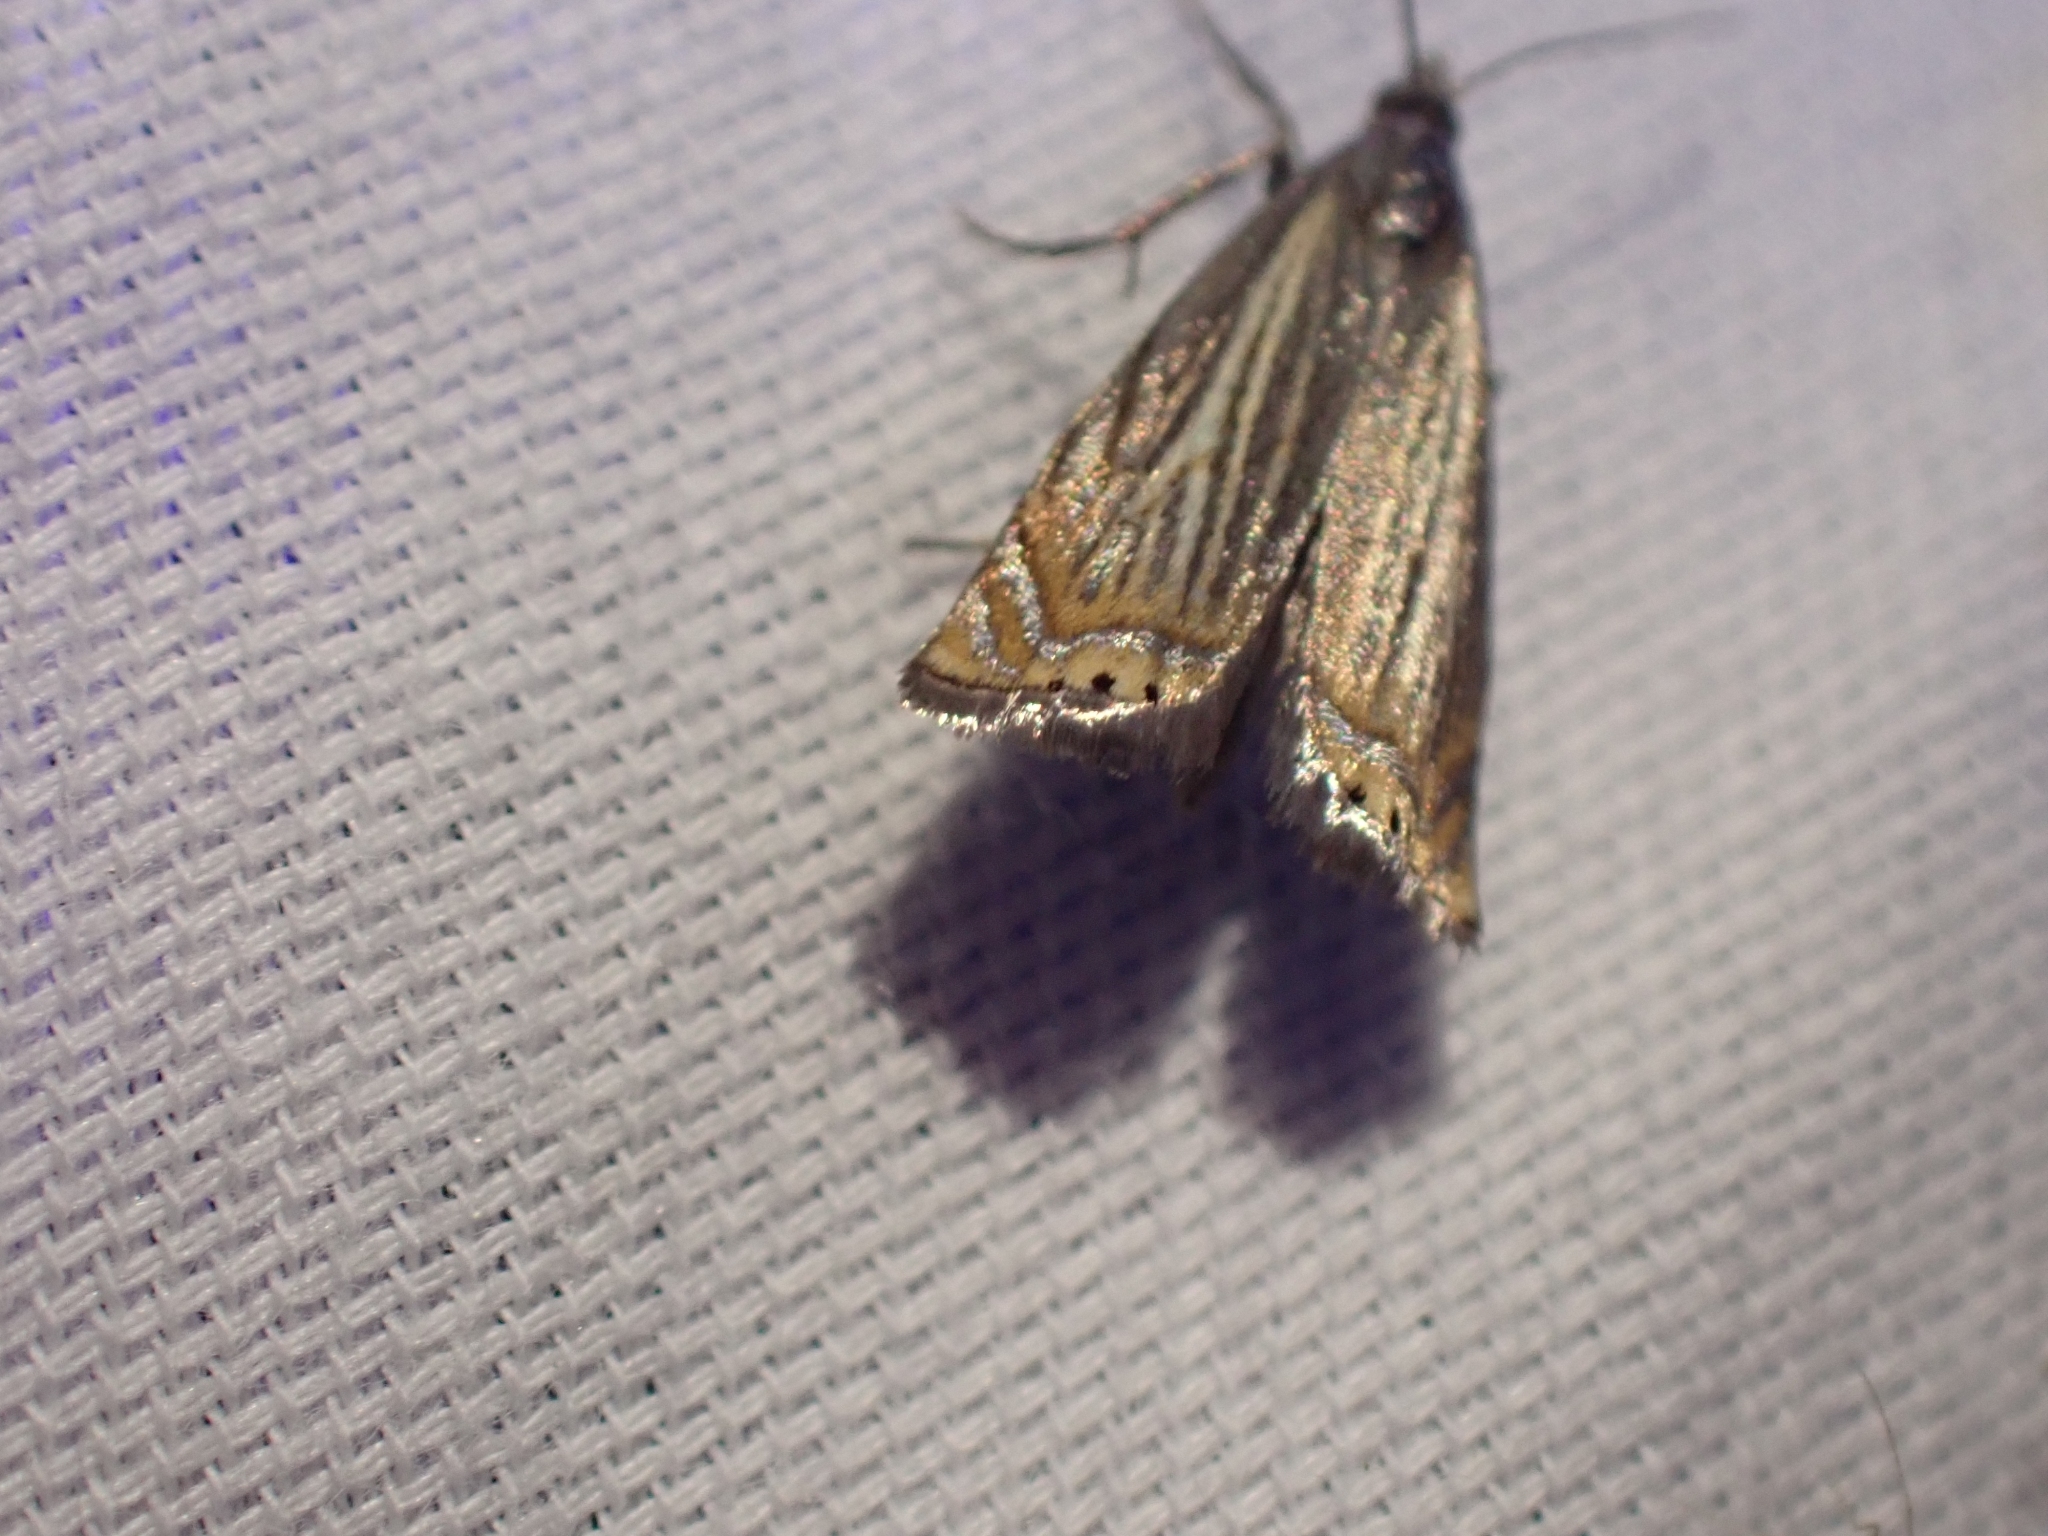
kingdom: Animalia
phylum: Arthropoda
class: Insecta
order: Lepidoptera
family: Crambidae
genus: Chrysoteuchia
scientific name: Chrysoteuchia topiarius
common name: Topiary grass-veneer
